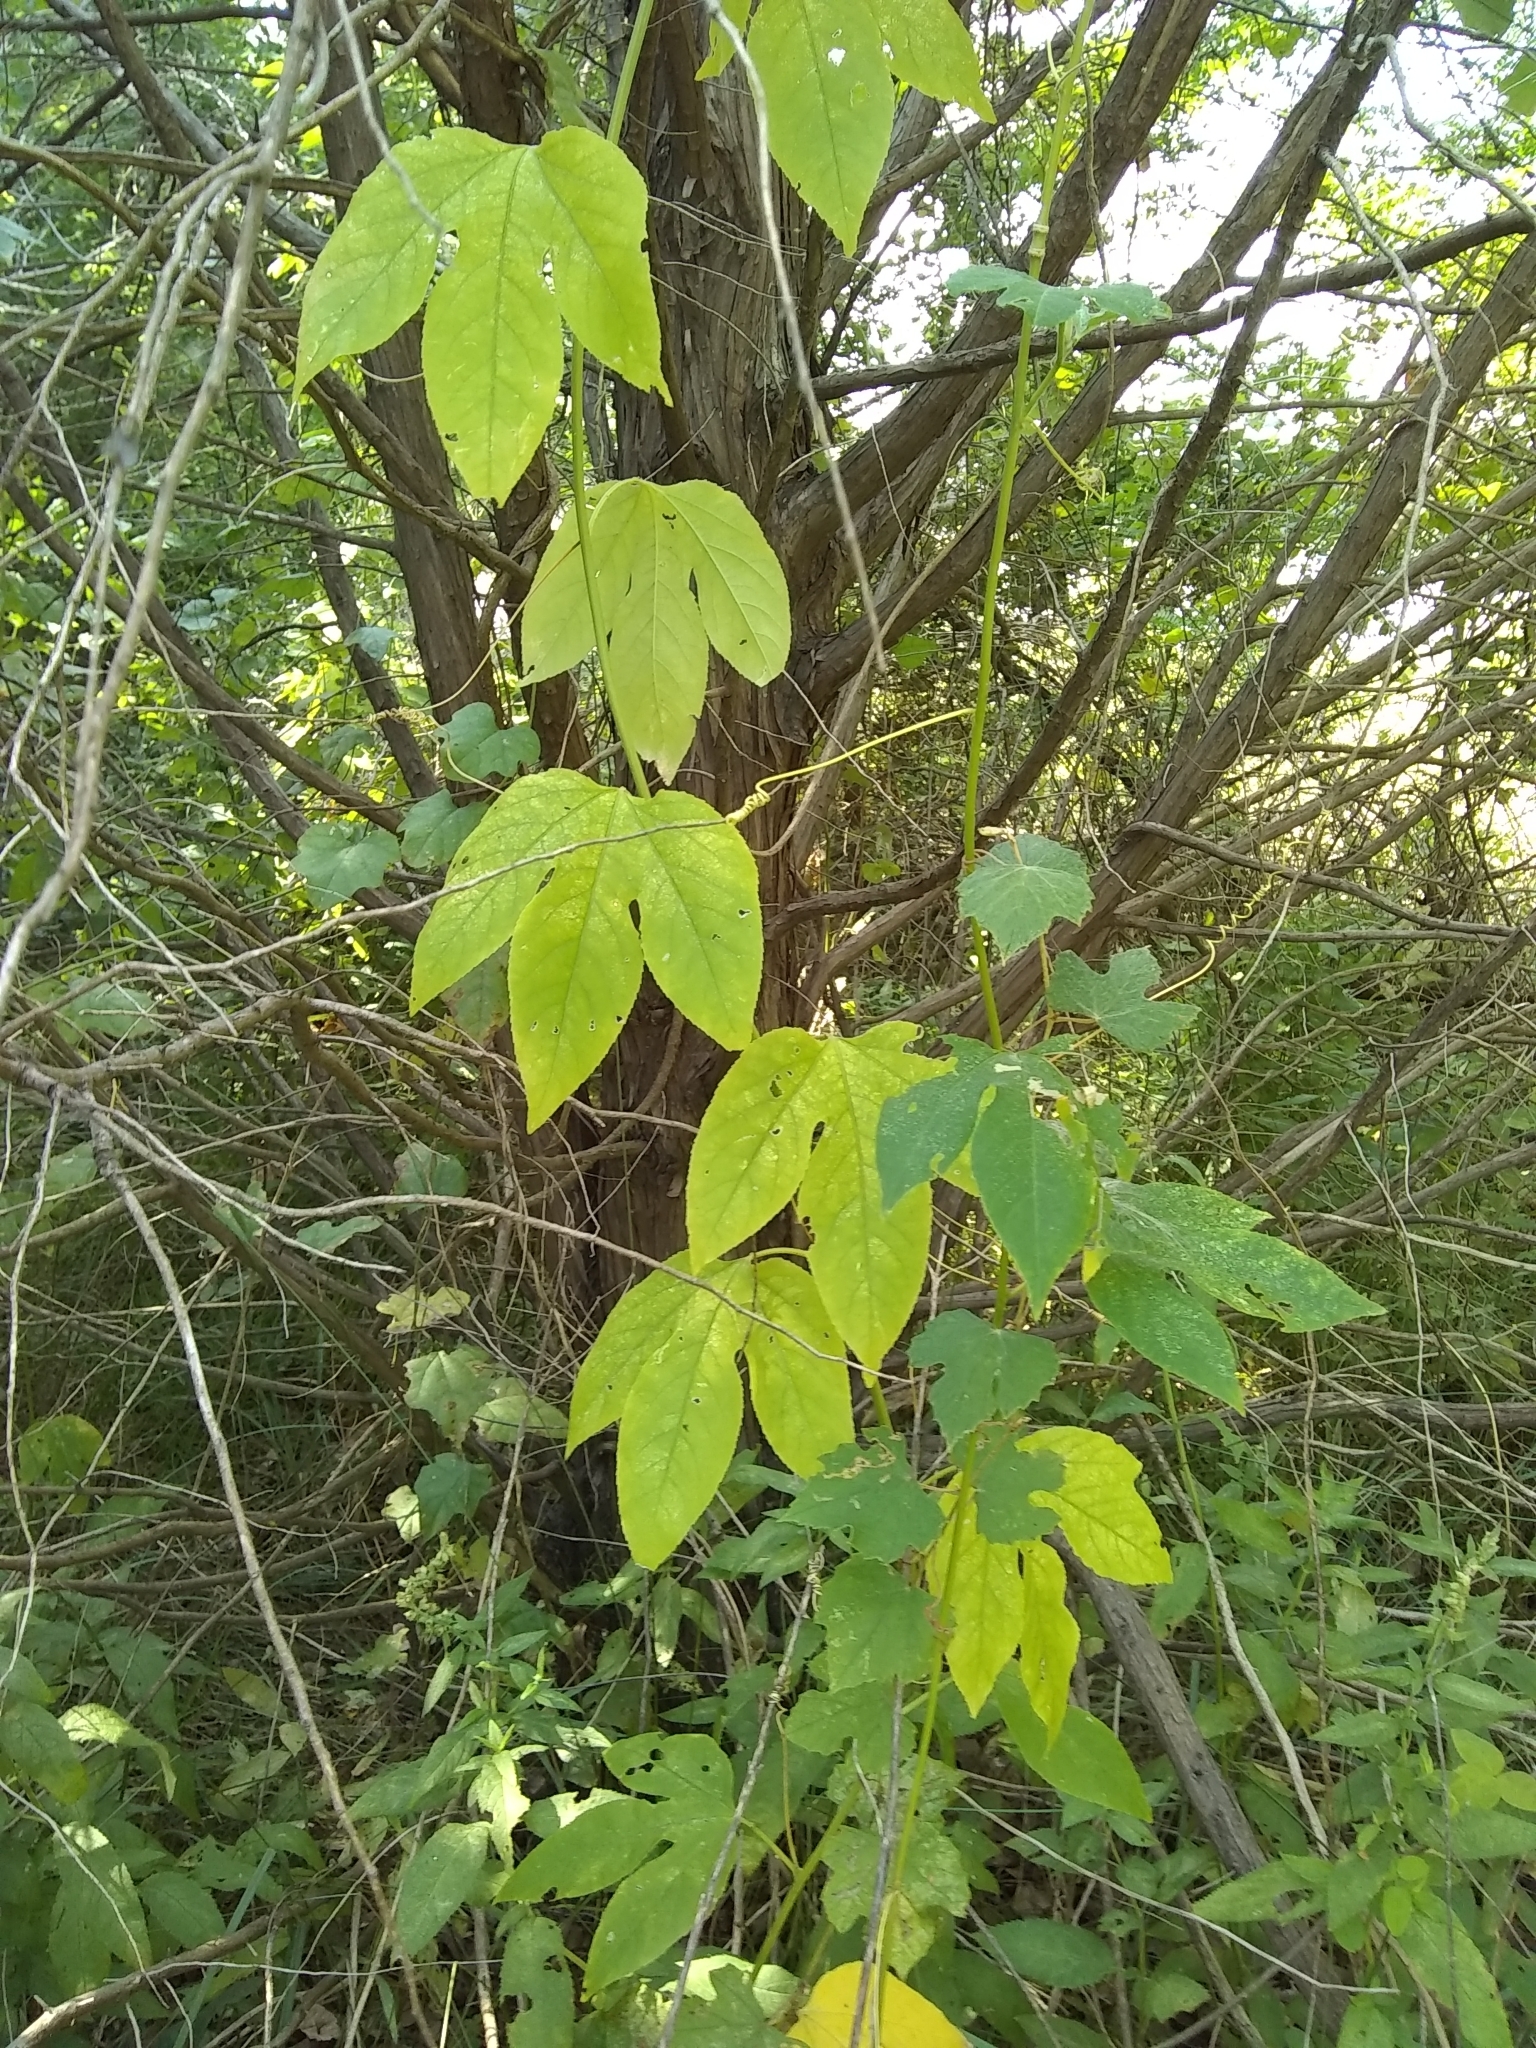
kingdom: Plantae
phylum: Tracheophyta
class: Magnoliopsida
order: Malpighiales
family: Passifloraceae
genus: Passiflora
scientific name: Passiflora incarnata
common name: Apricot-vine
